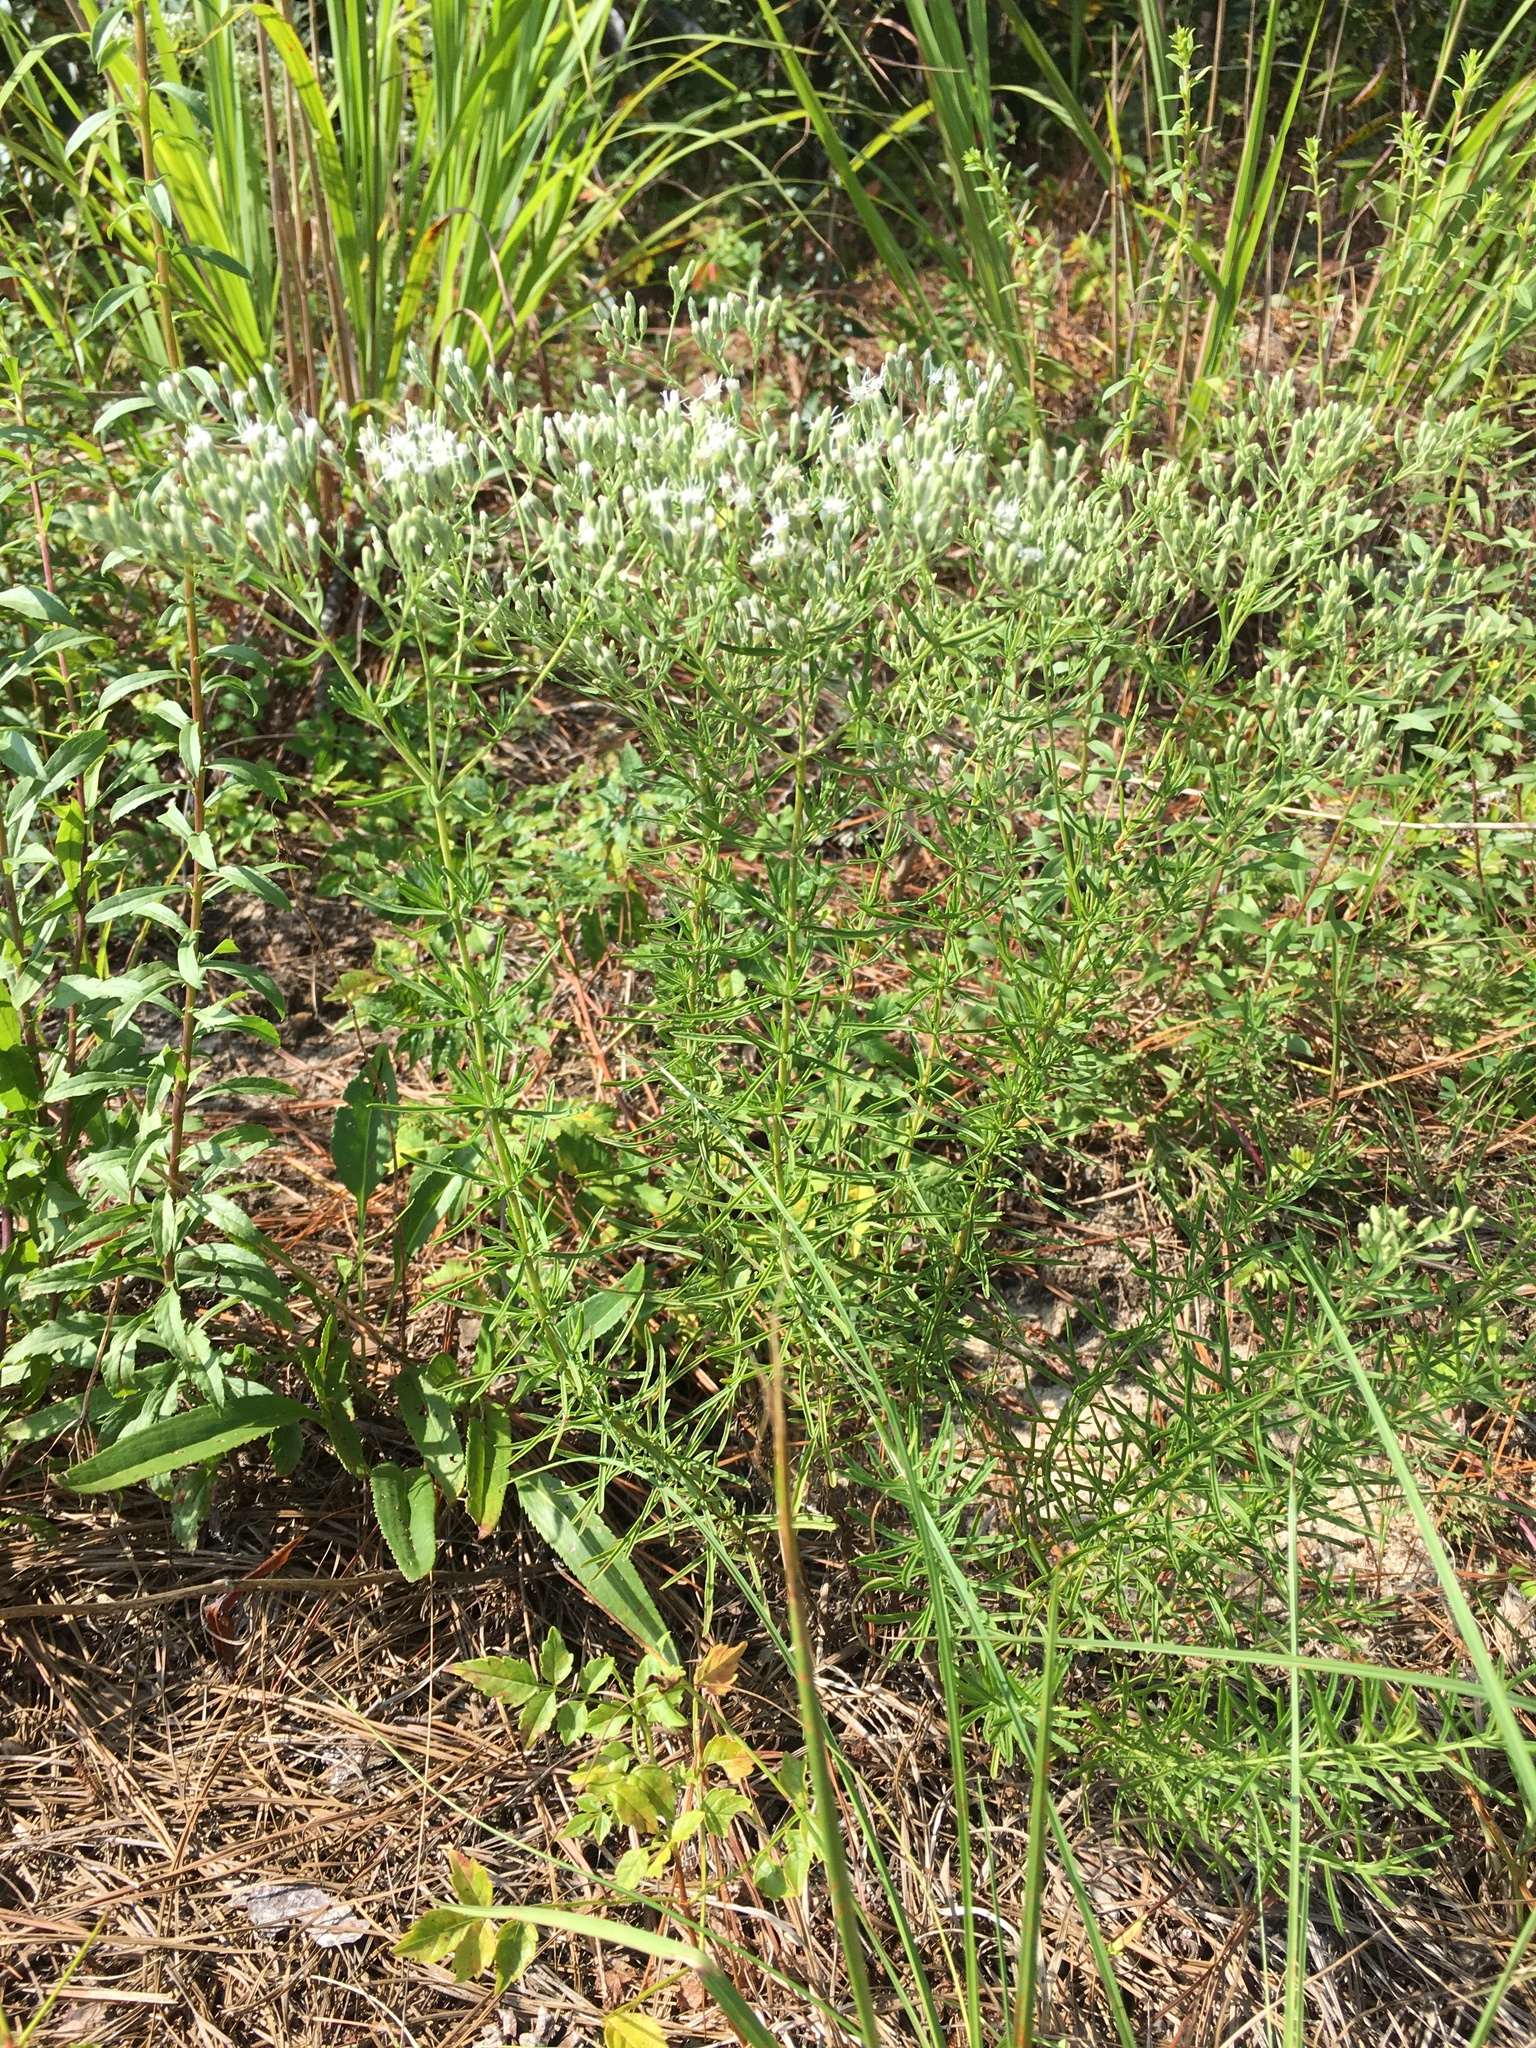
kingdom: Plantae
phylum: Tracheophyta
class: Magnoliopsida
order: Asterales
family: Asteraceae
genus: Eupatorium
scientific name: Eupatorium hyssopifolium
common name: Hyssop-leaf thoroughwort
